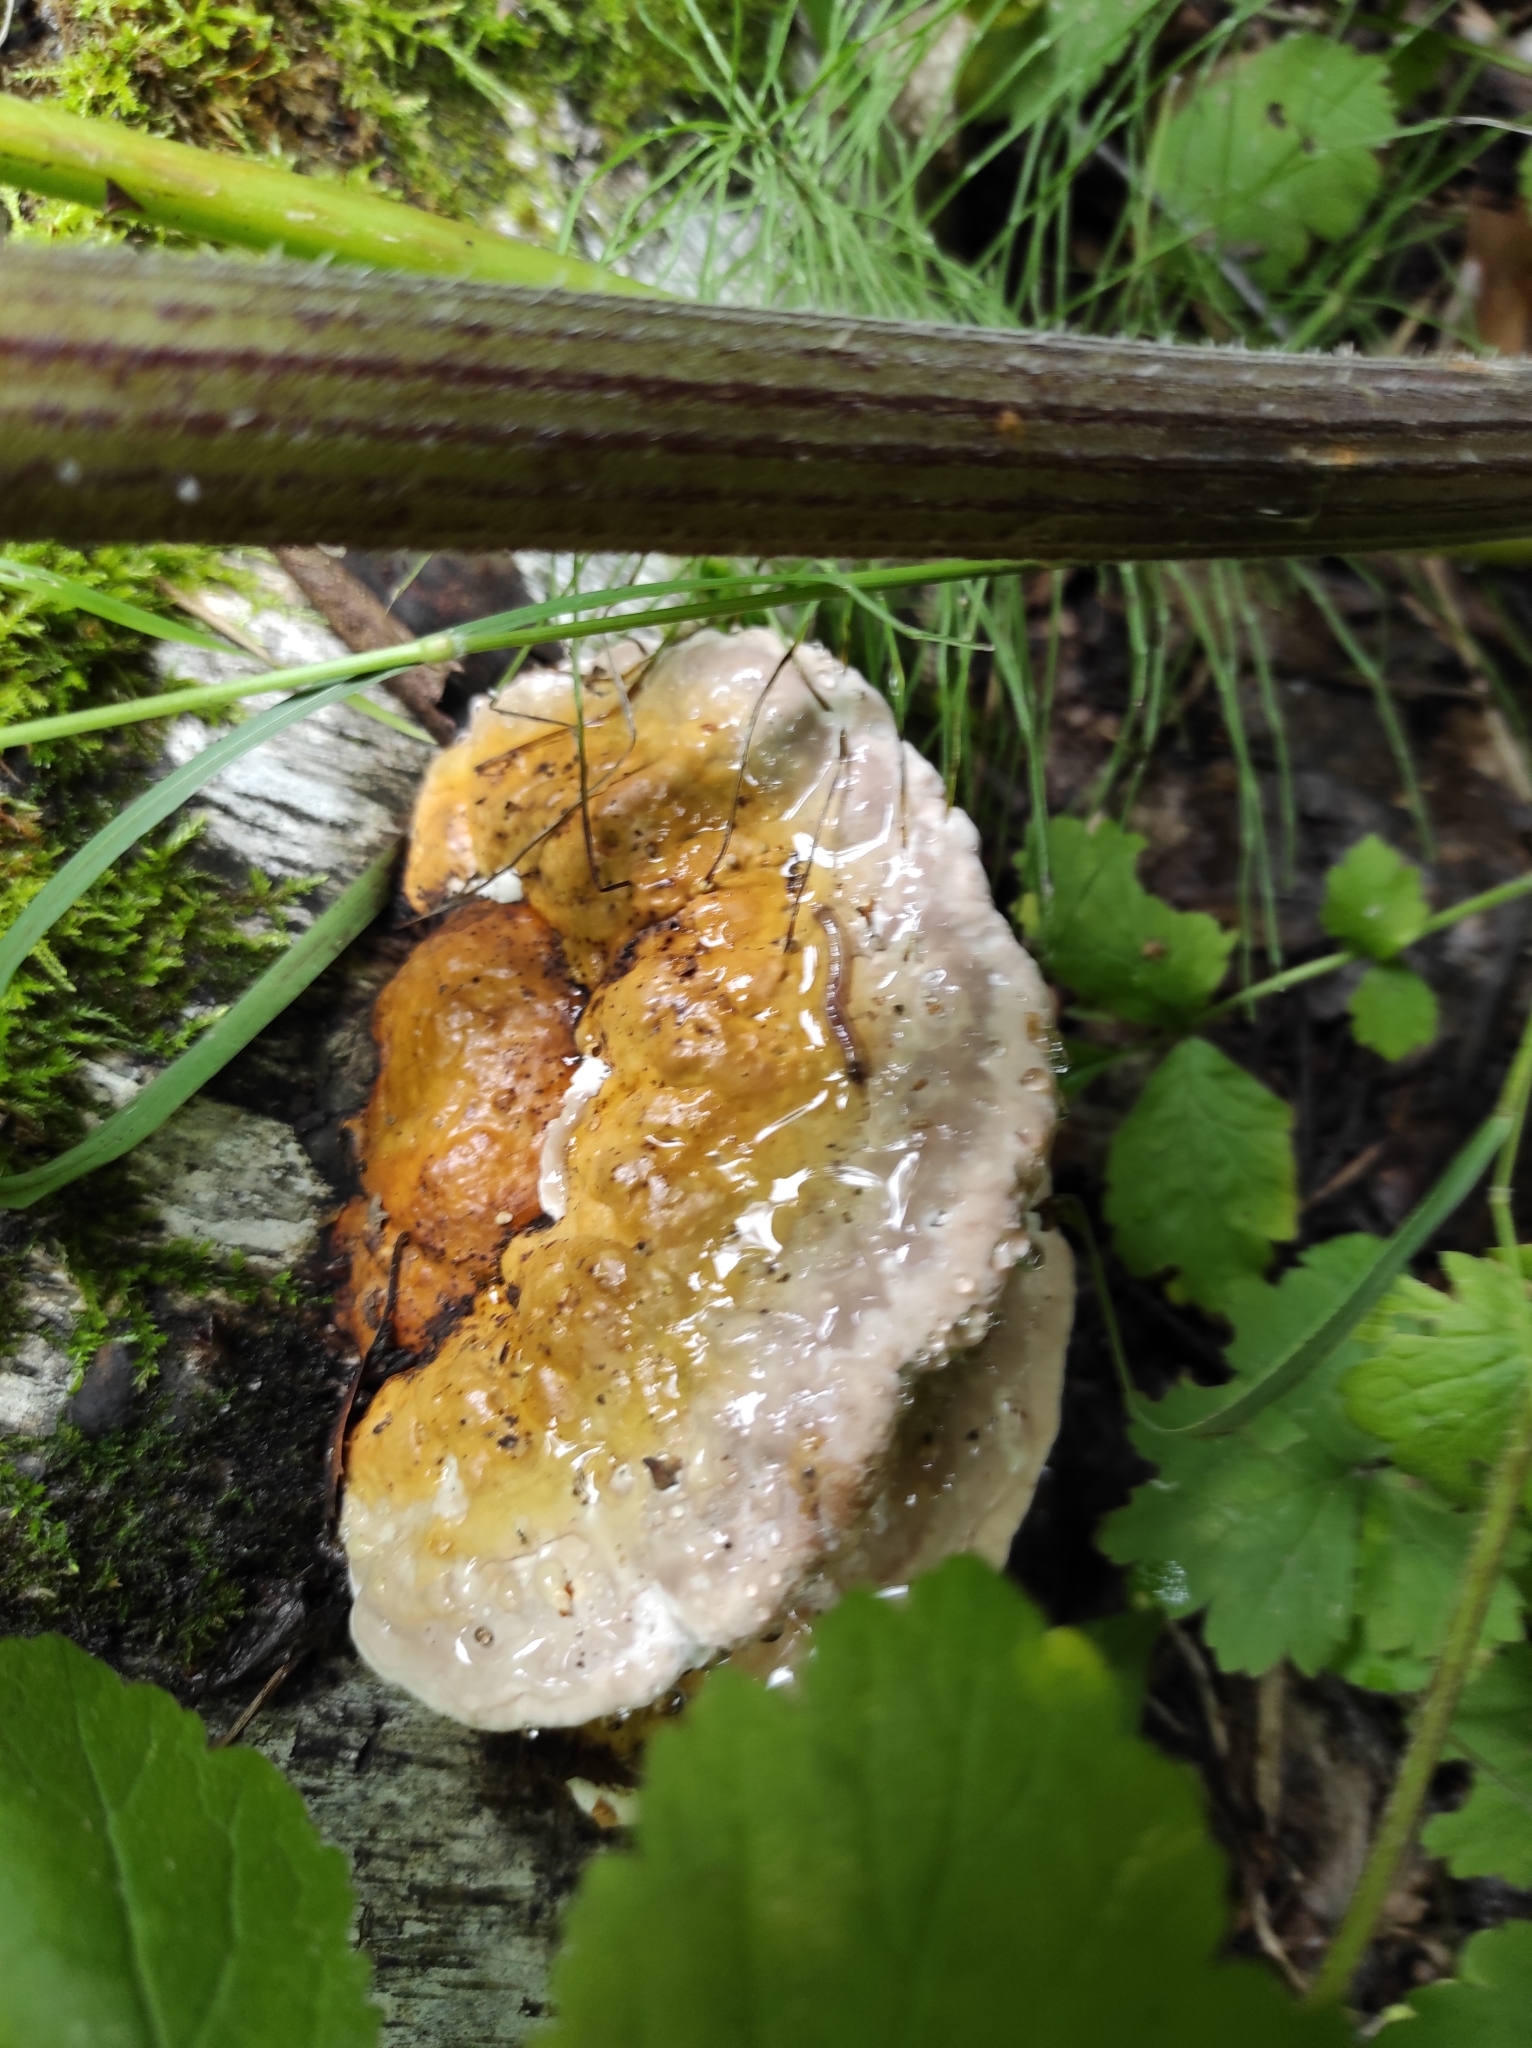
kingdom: Fungi
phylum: Basidiomycota
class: Agaricomycetes
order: Polyporales
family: Fomitopsidaceae
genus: Fomitopsis
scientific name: Fomitopsis pinicola
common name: Red-belted bracket
